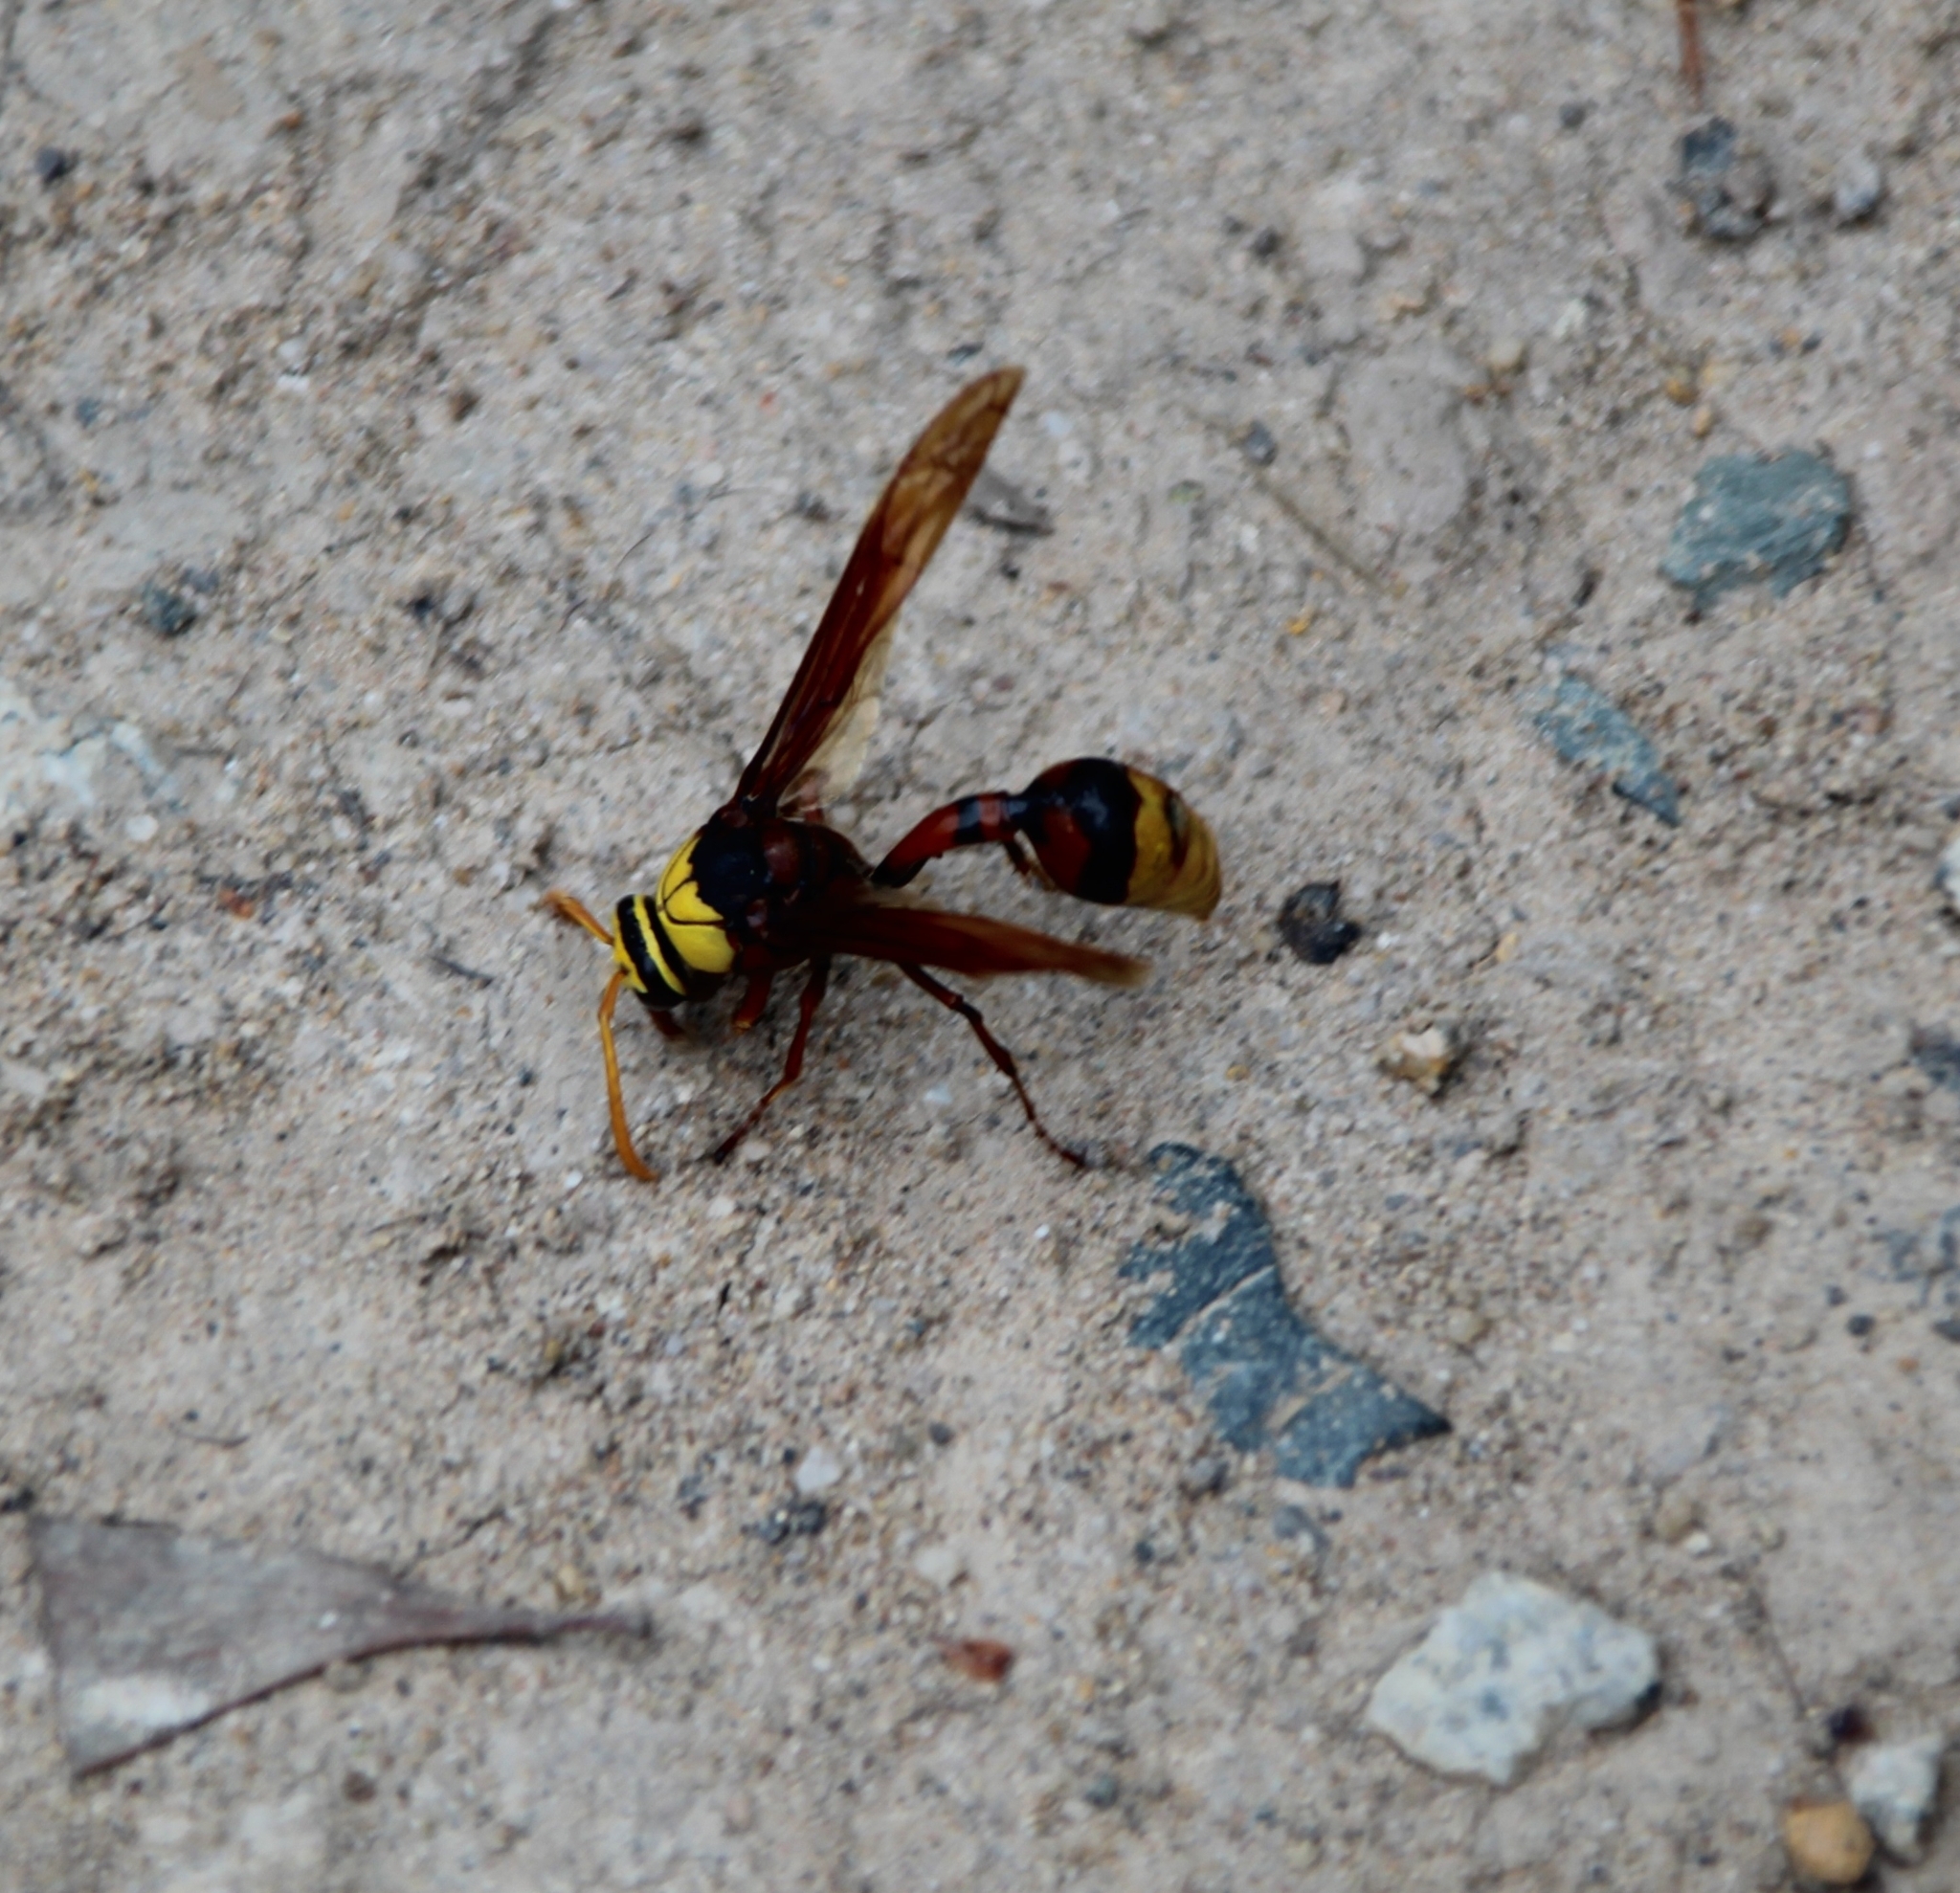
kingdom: Animalia
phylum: Arthropoda
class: Insecta
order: Hymenoptera
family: Eumenidae
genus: Delta
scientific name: Delta pyriforme
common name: Wasp
